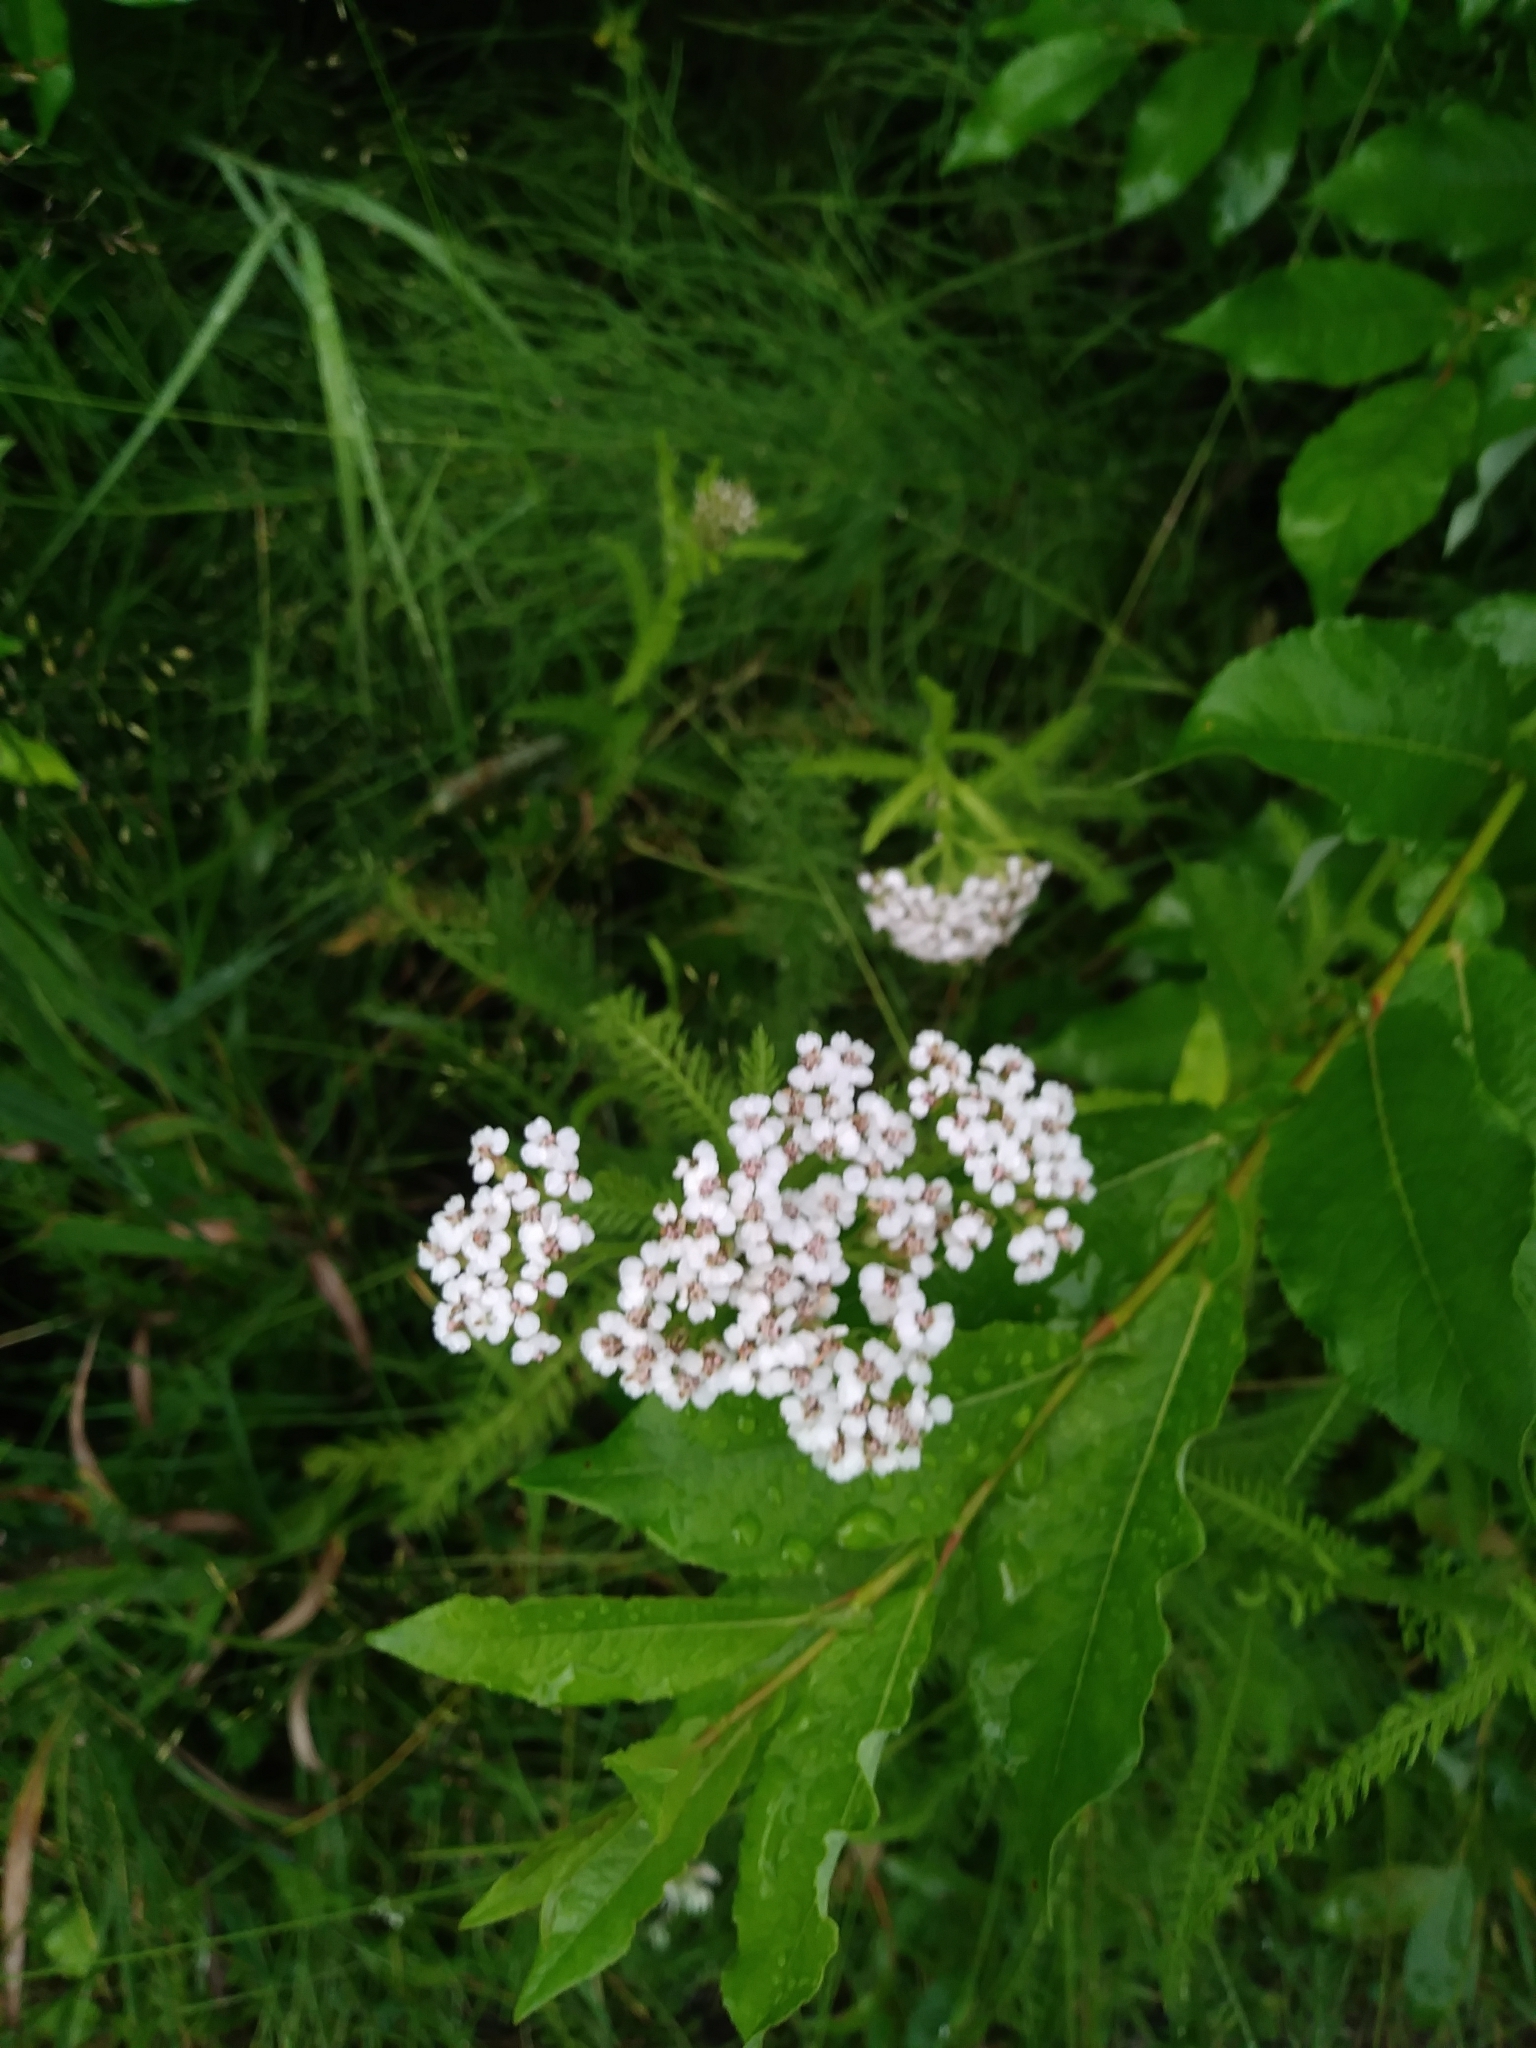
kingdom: Plantae
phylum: Tracheophyta
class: Magnoliopsida
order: Asterales
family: Asteraceae
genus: Achillea
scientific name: Achillea millefolium
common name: Yarrow
